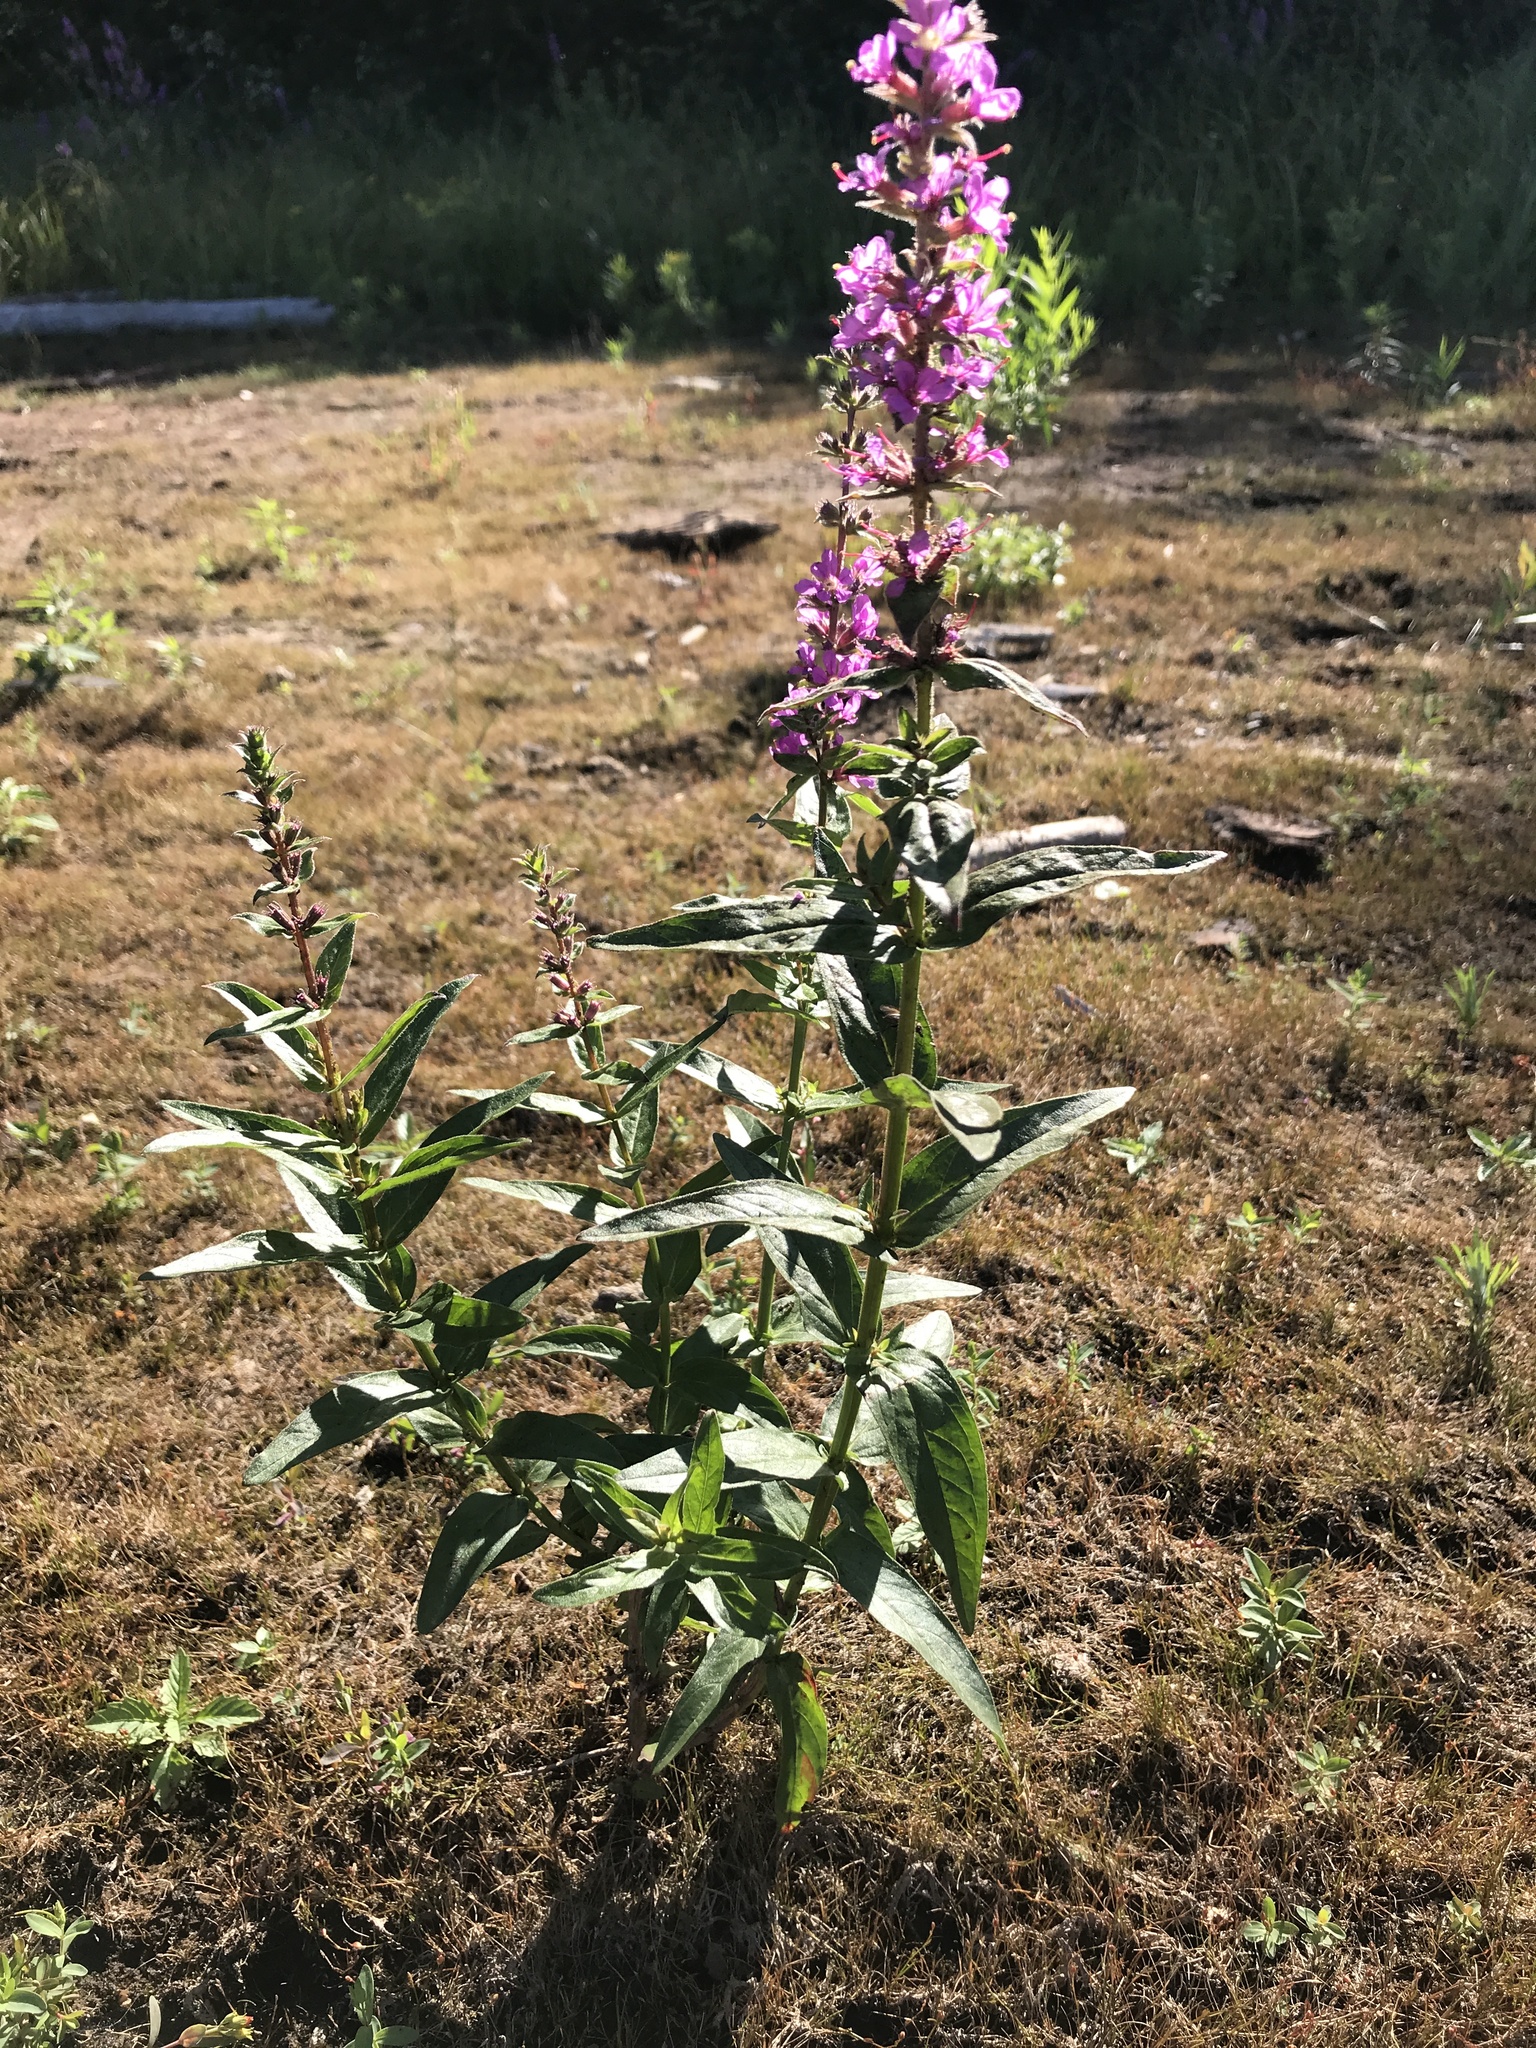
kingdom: Plantae
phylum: Tracheophyta
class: Magnoliopsida
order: Myrtales
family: Lythraceae
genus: Lythrum
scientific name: Lythrum salicaria
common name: Purple loosestrife
